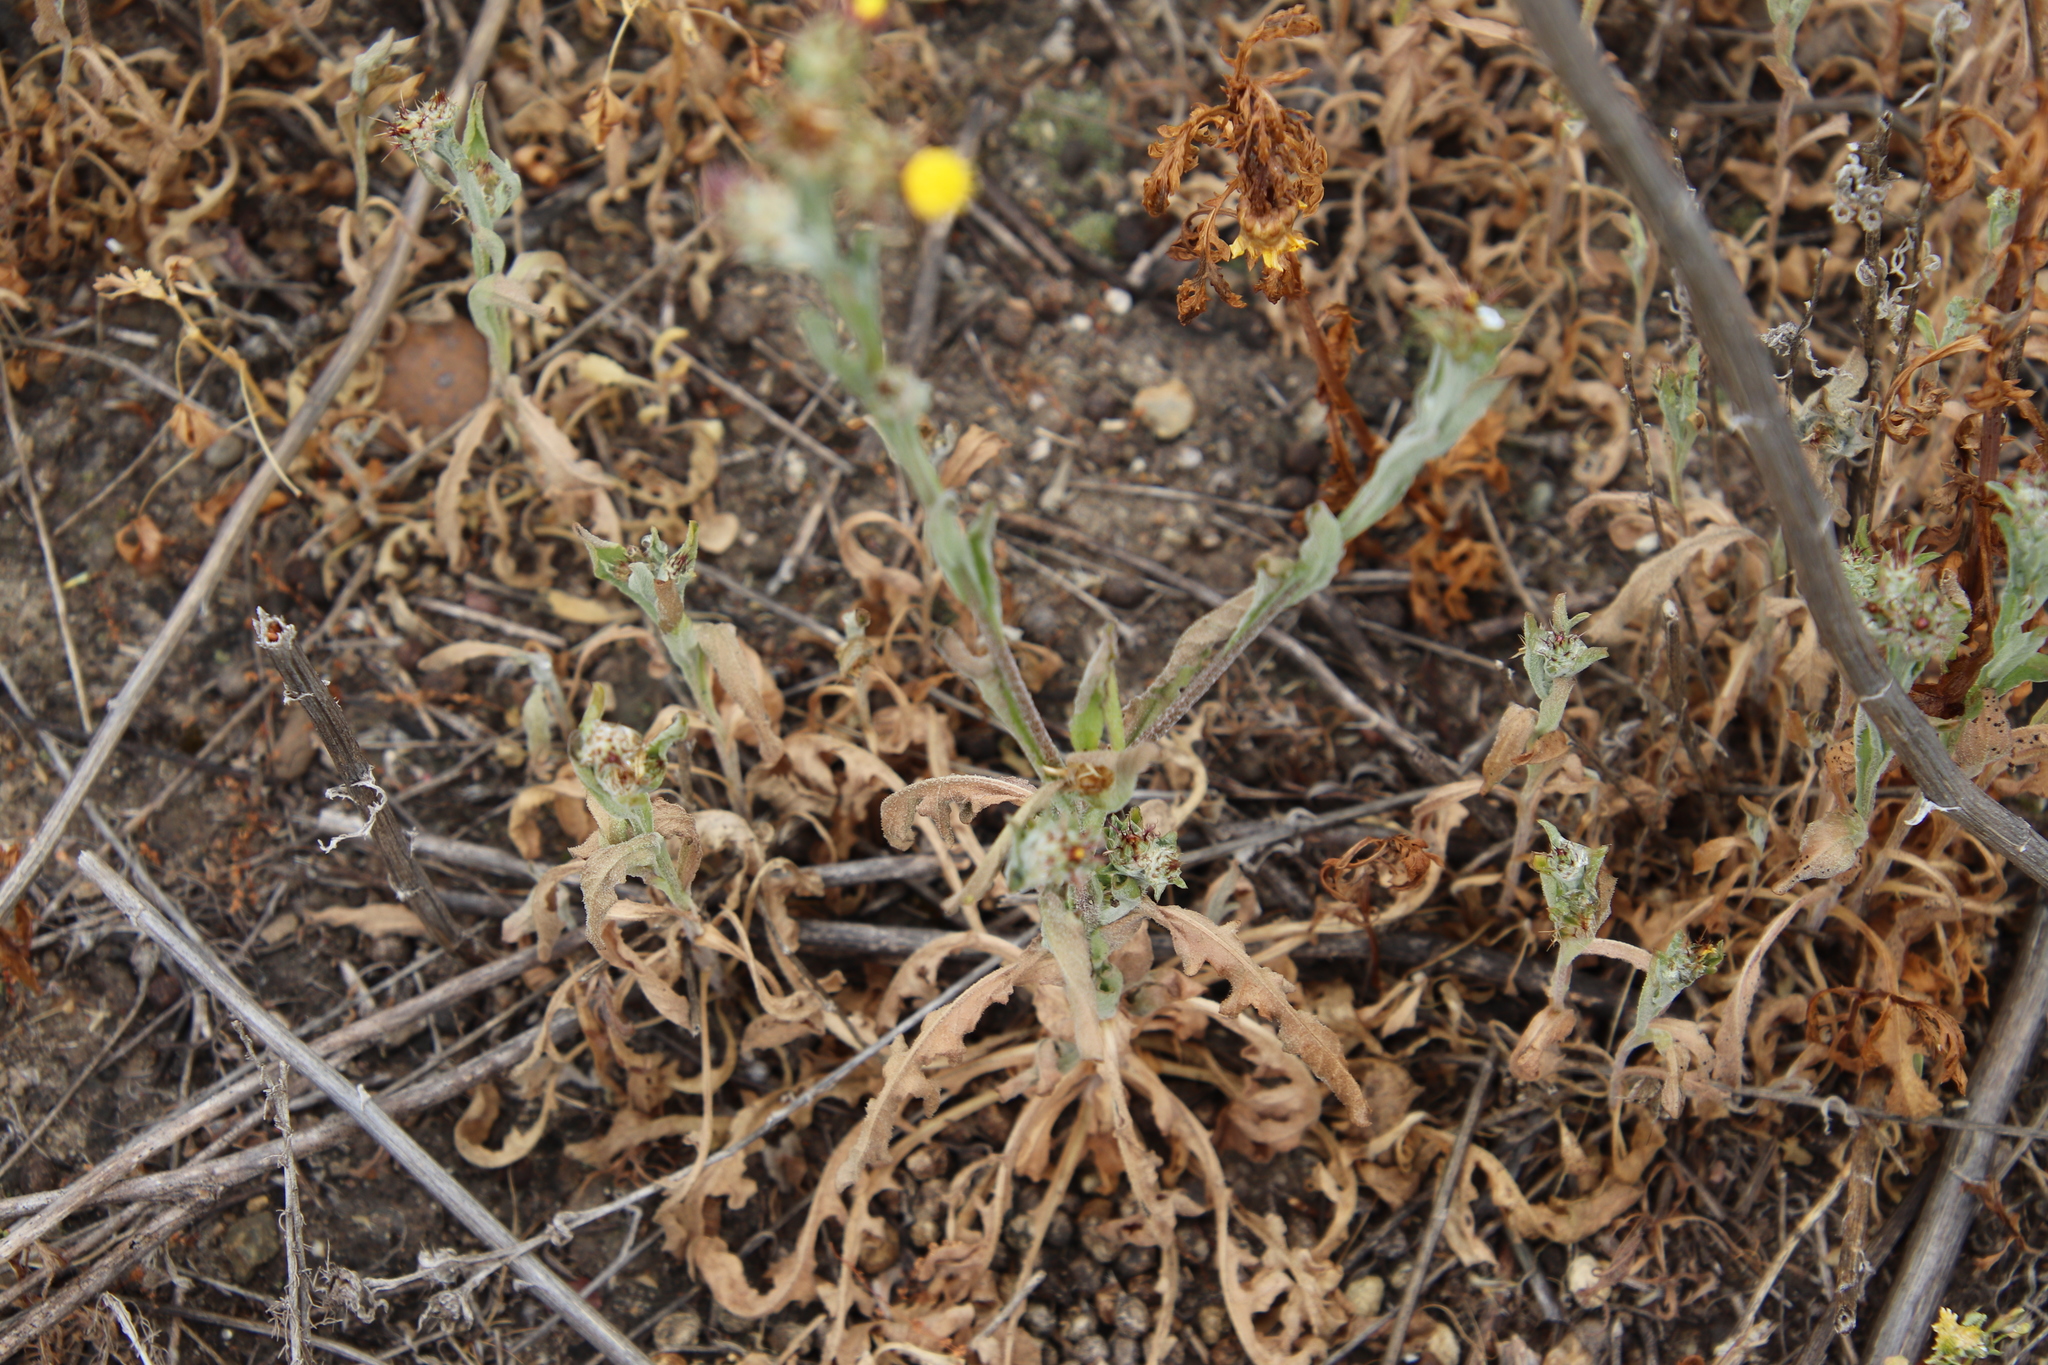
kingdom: Plantae
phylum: Tracheophyta
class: Magnoliopsida
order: Asterales
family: Asteraceae
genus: Centaurea
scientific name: Centaurea melitensis
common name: Maltese star-thistle
